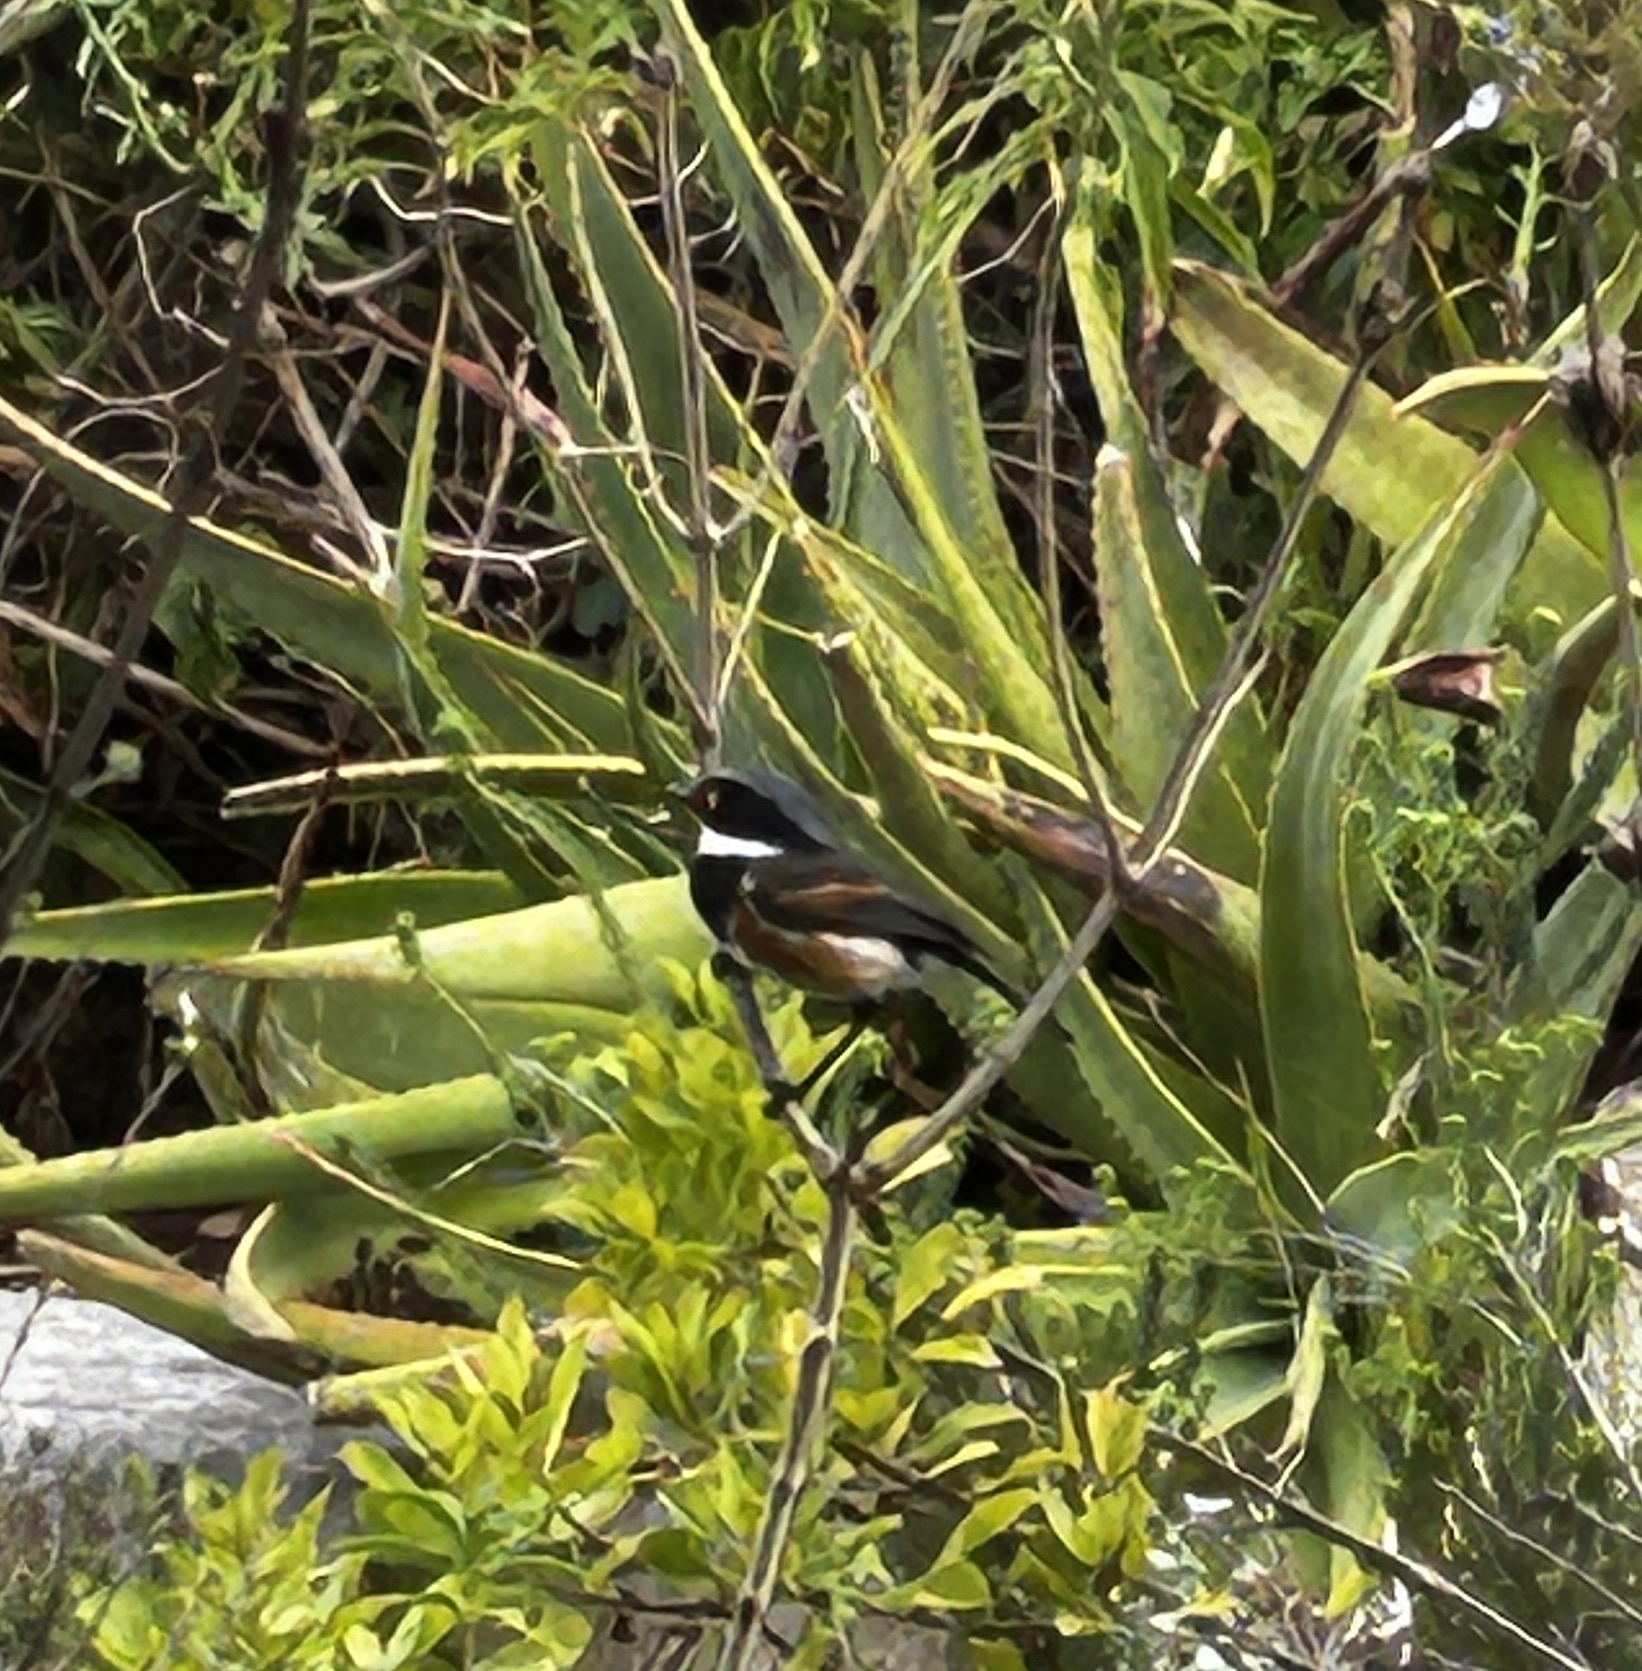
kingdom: Animalia
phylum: Chordata
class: Aves
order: Passeriformes
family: Platysteiridae
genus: Batis
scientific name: Batis capensis
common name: Cape batis
